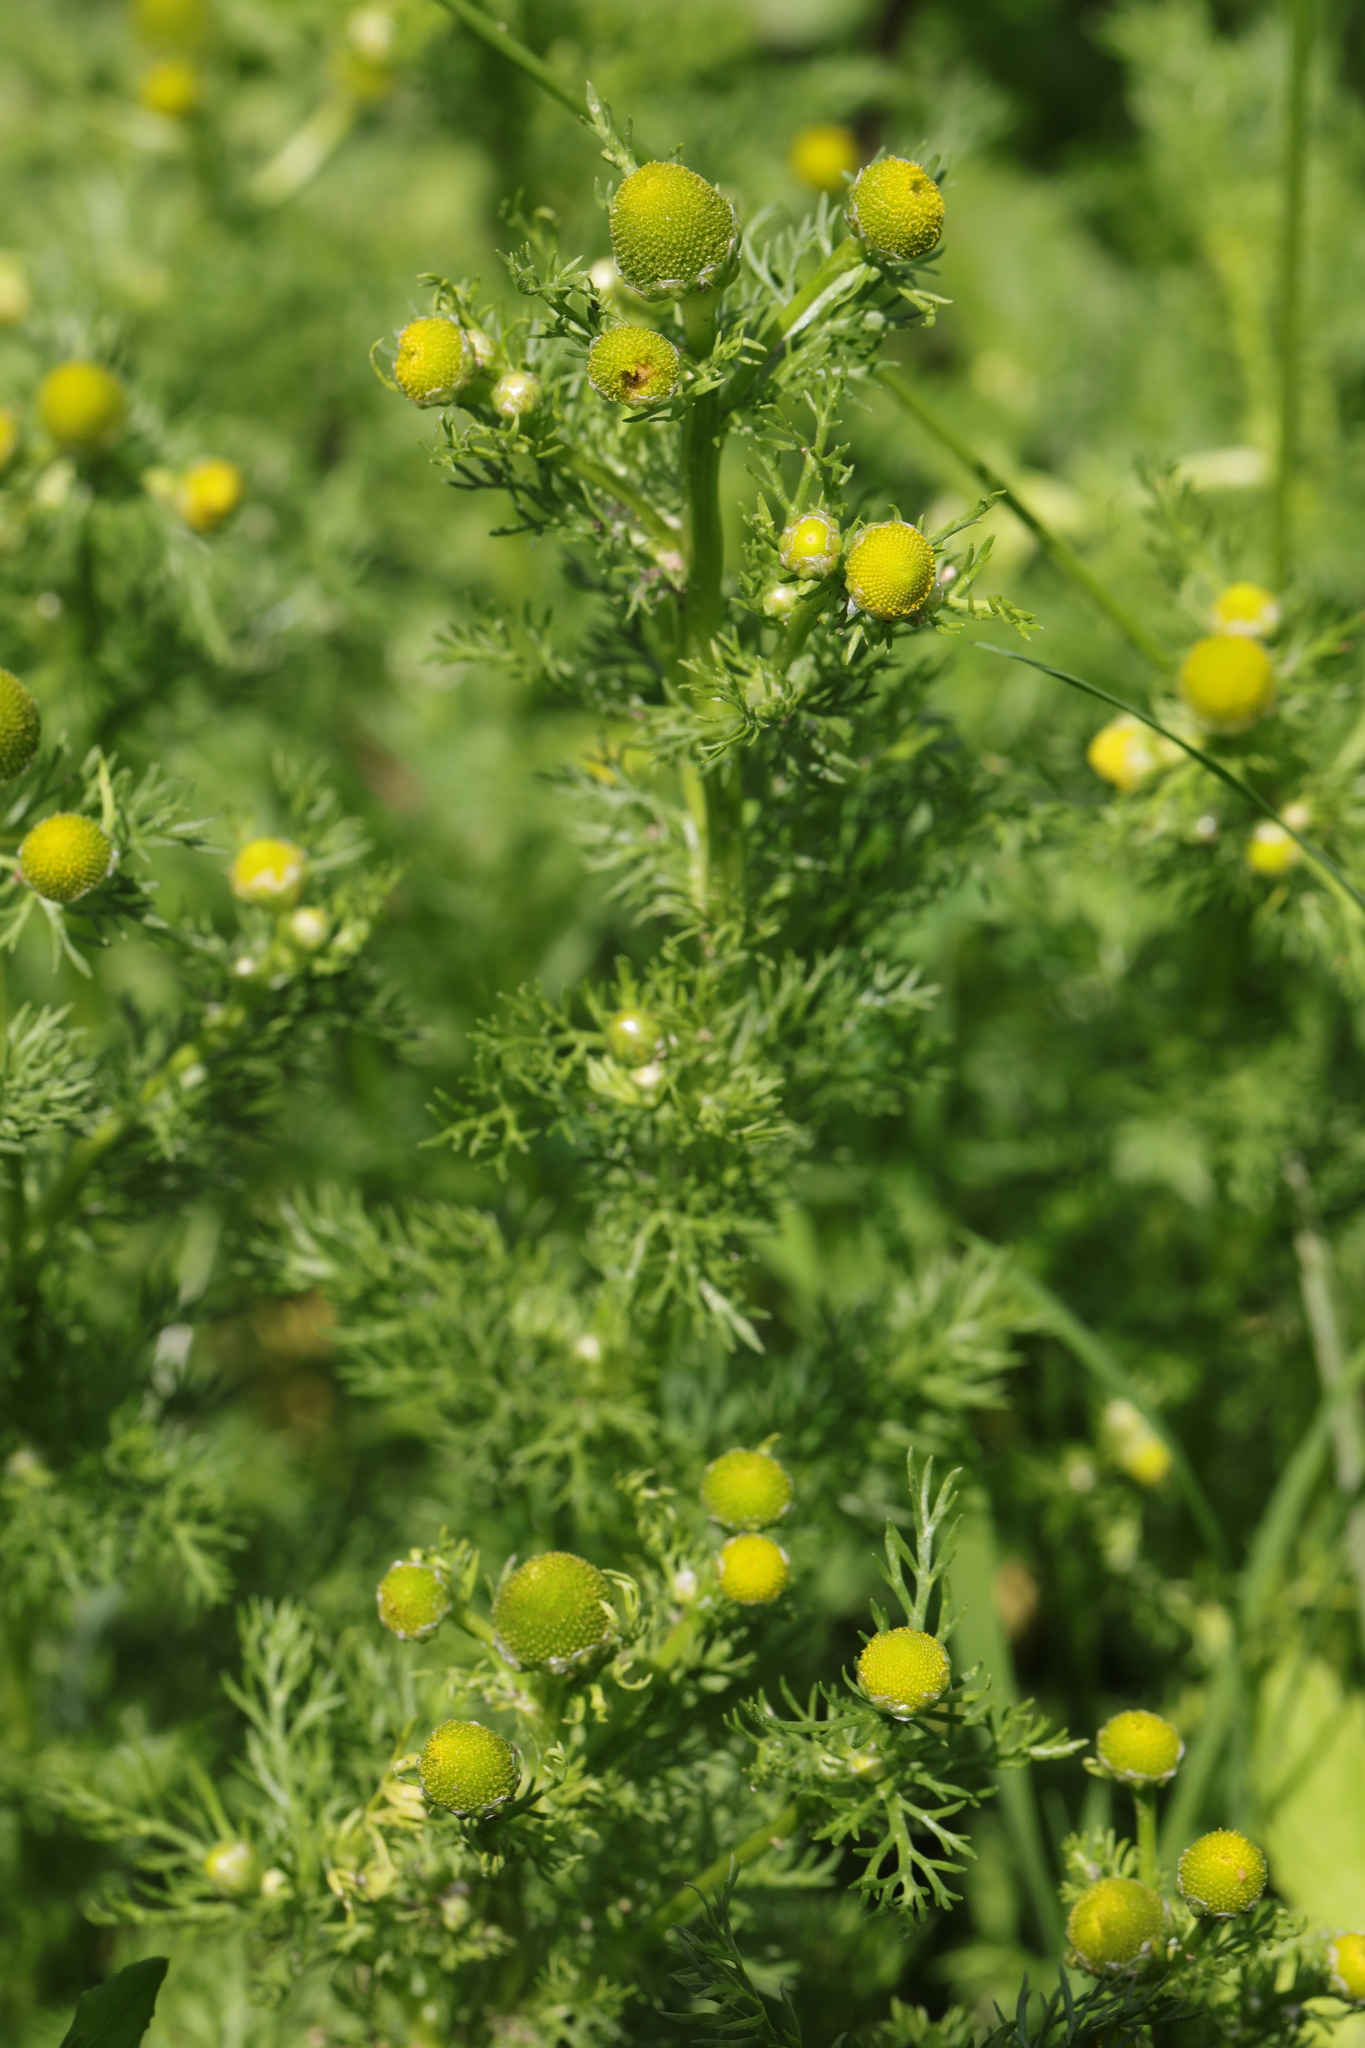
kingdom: Plantae
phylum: Tracheophyta
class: Magnoliopsida
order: Asterales
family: Asteraceae
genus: Matricaria
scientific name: Matricaria discoidea
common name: Disc mayweed
